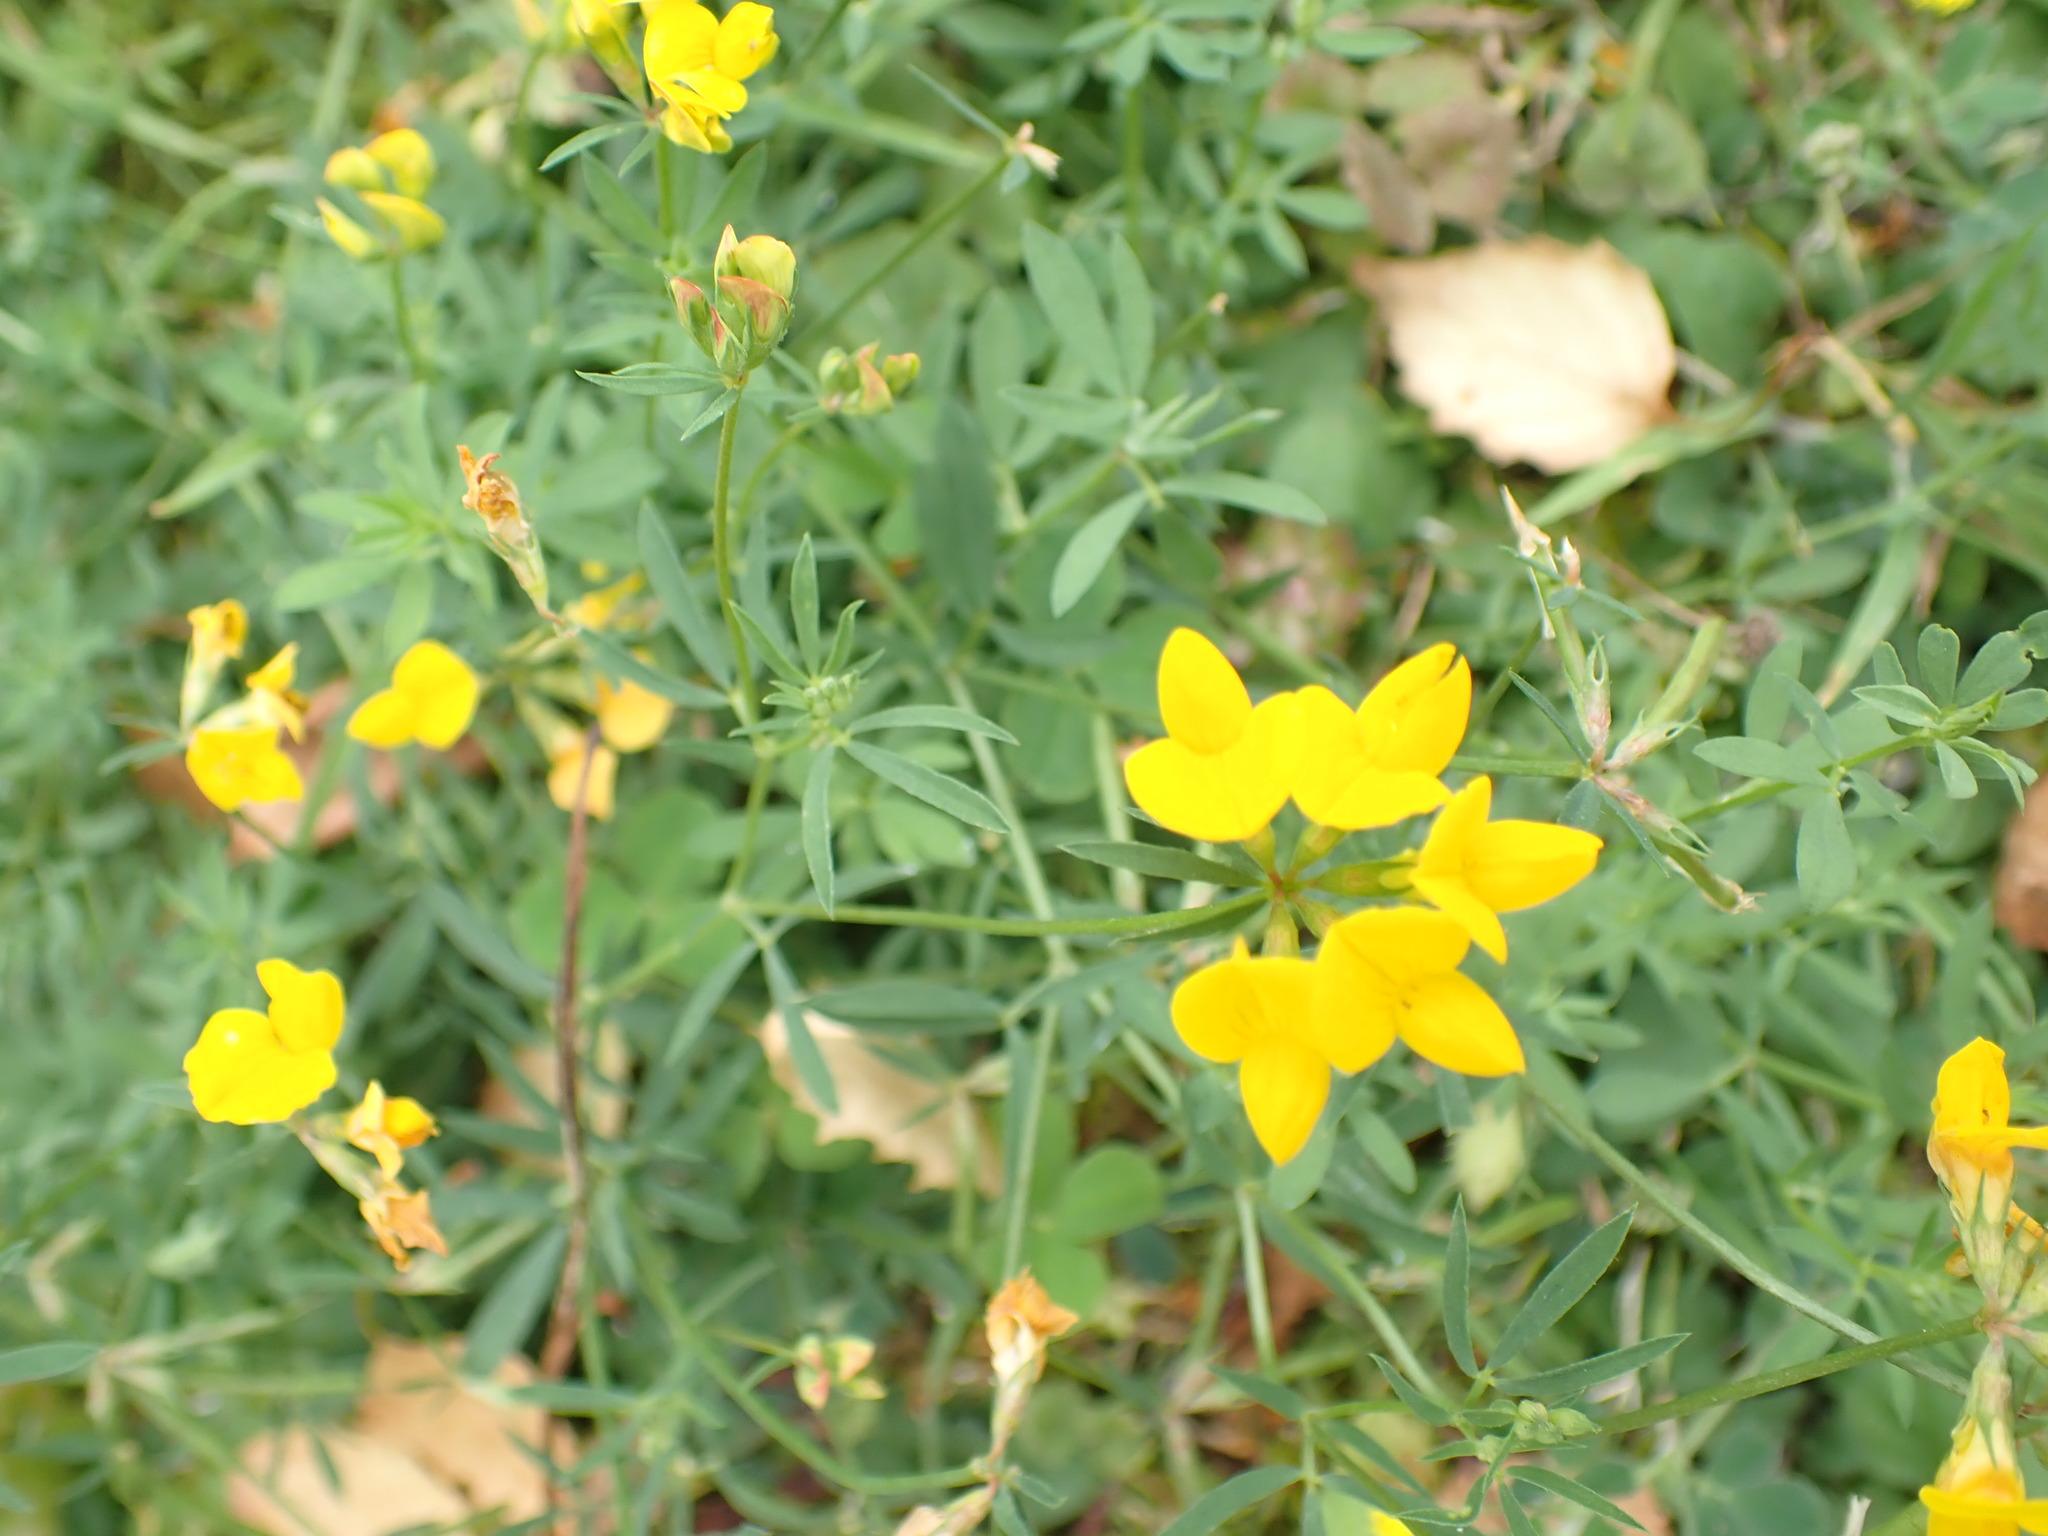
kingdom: Plantae
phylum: Tracheophyta
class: Magnoliopsida
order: Fabales
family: Fabaceae
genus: Lotus
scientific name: Lotus tenuis
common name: Narrow-leaved bird's-foot-trefoil
